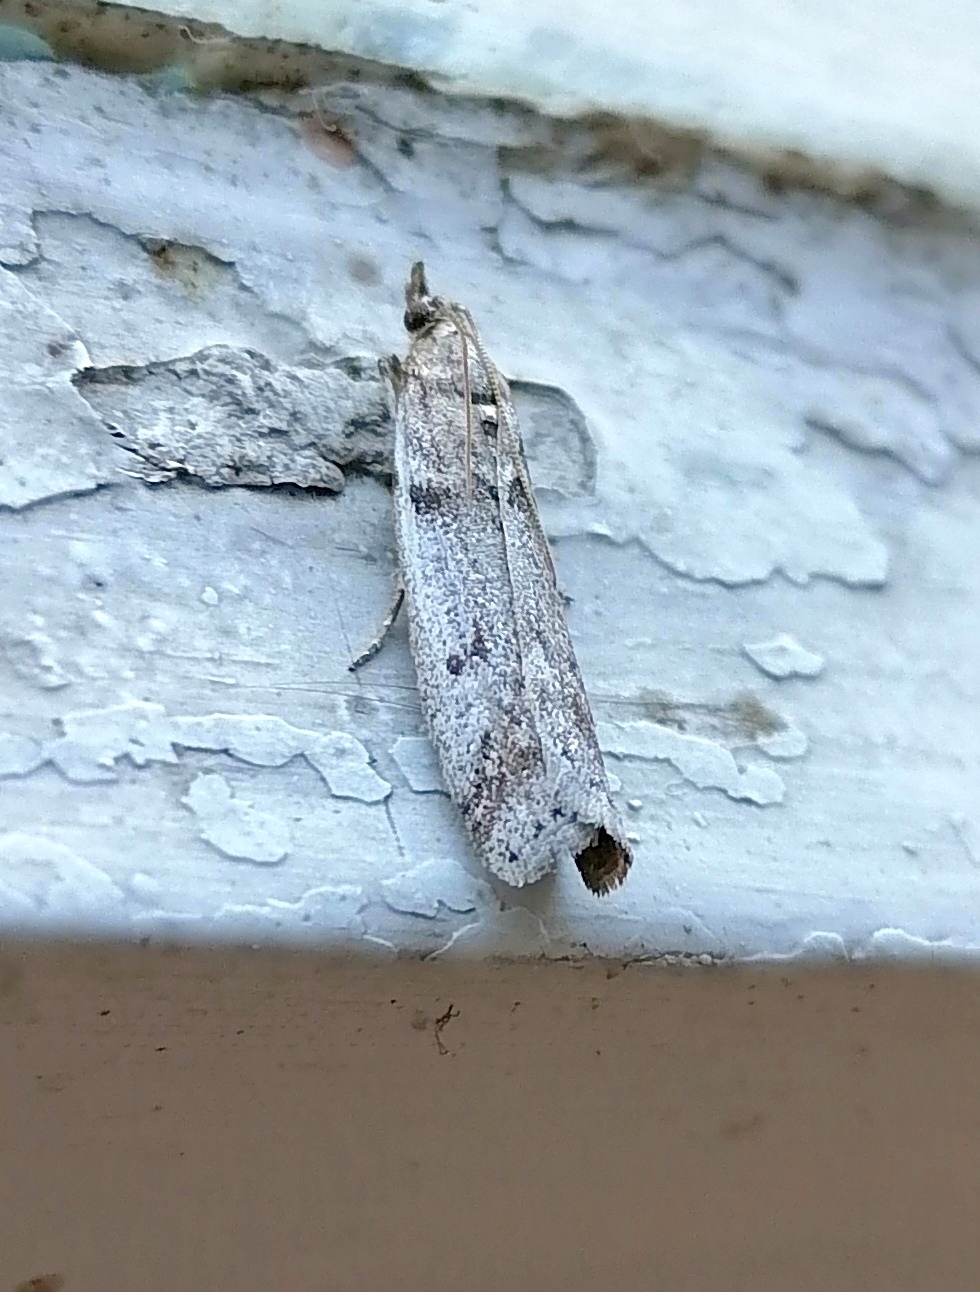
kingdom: Animalia
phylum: Arthropoda
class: Insecta
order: Lepidoptera
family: Pyralidae
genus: Zophodia
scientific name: Zophodia convolutella
